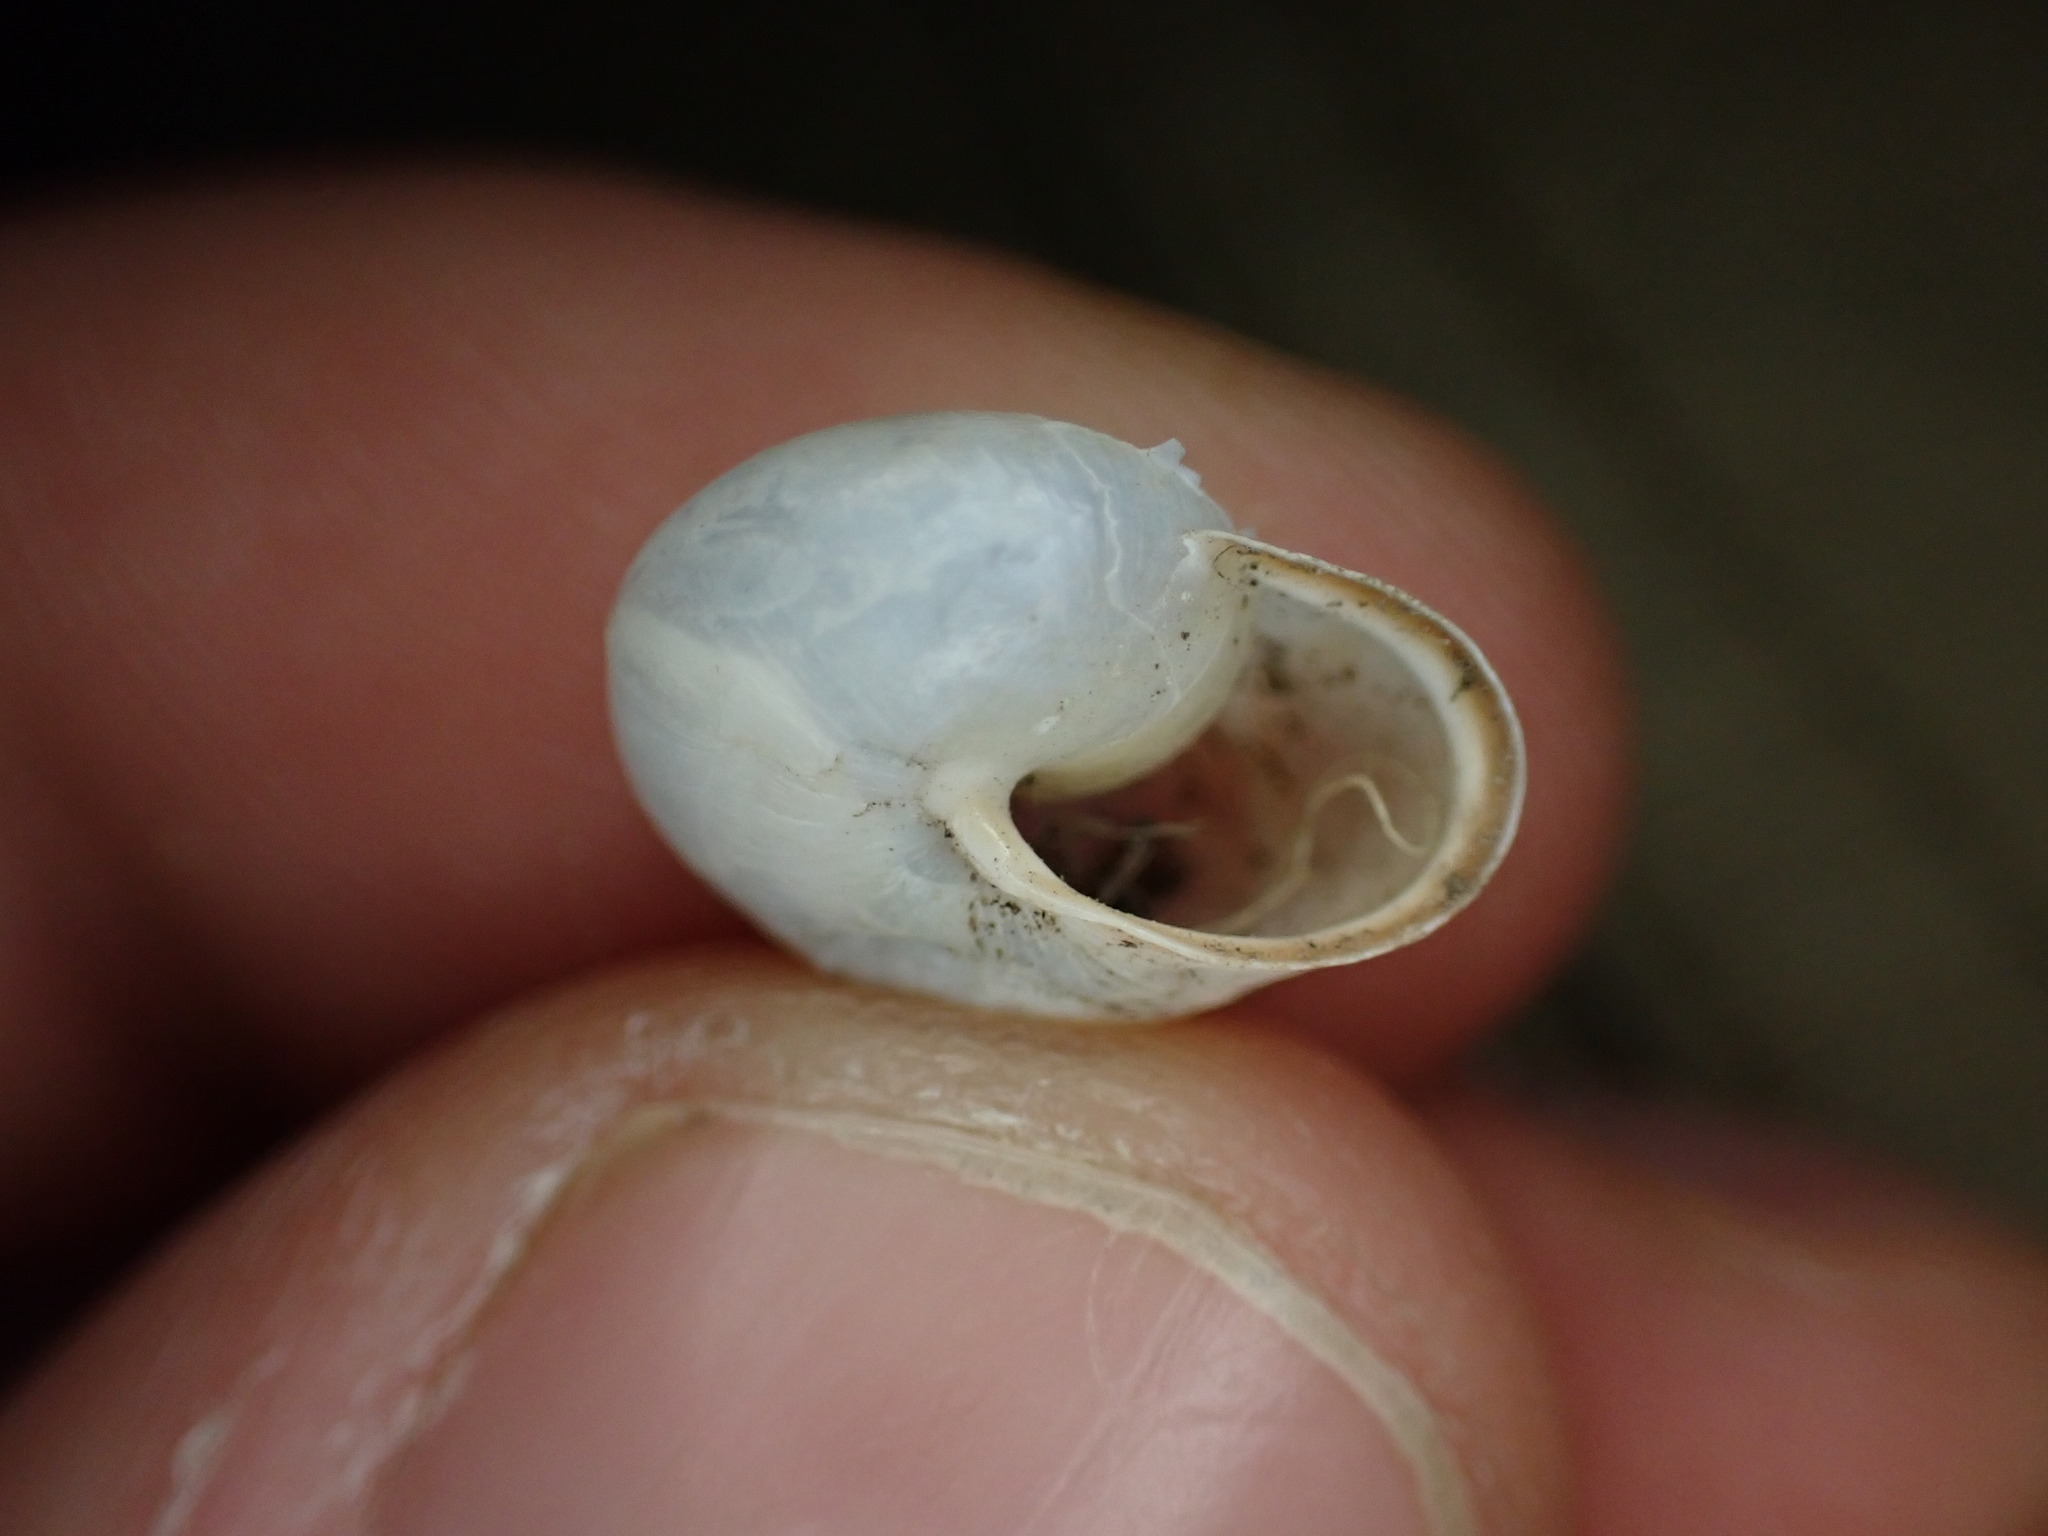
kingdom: Animalia
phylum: Mollusca
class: Gastropoda
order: Stylommatophora
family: Hygromiidae
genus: Monacha
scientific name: Monacha cartusiana
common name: Carthusian snail
